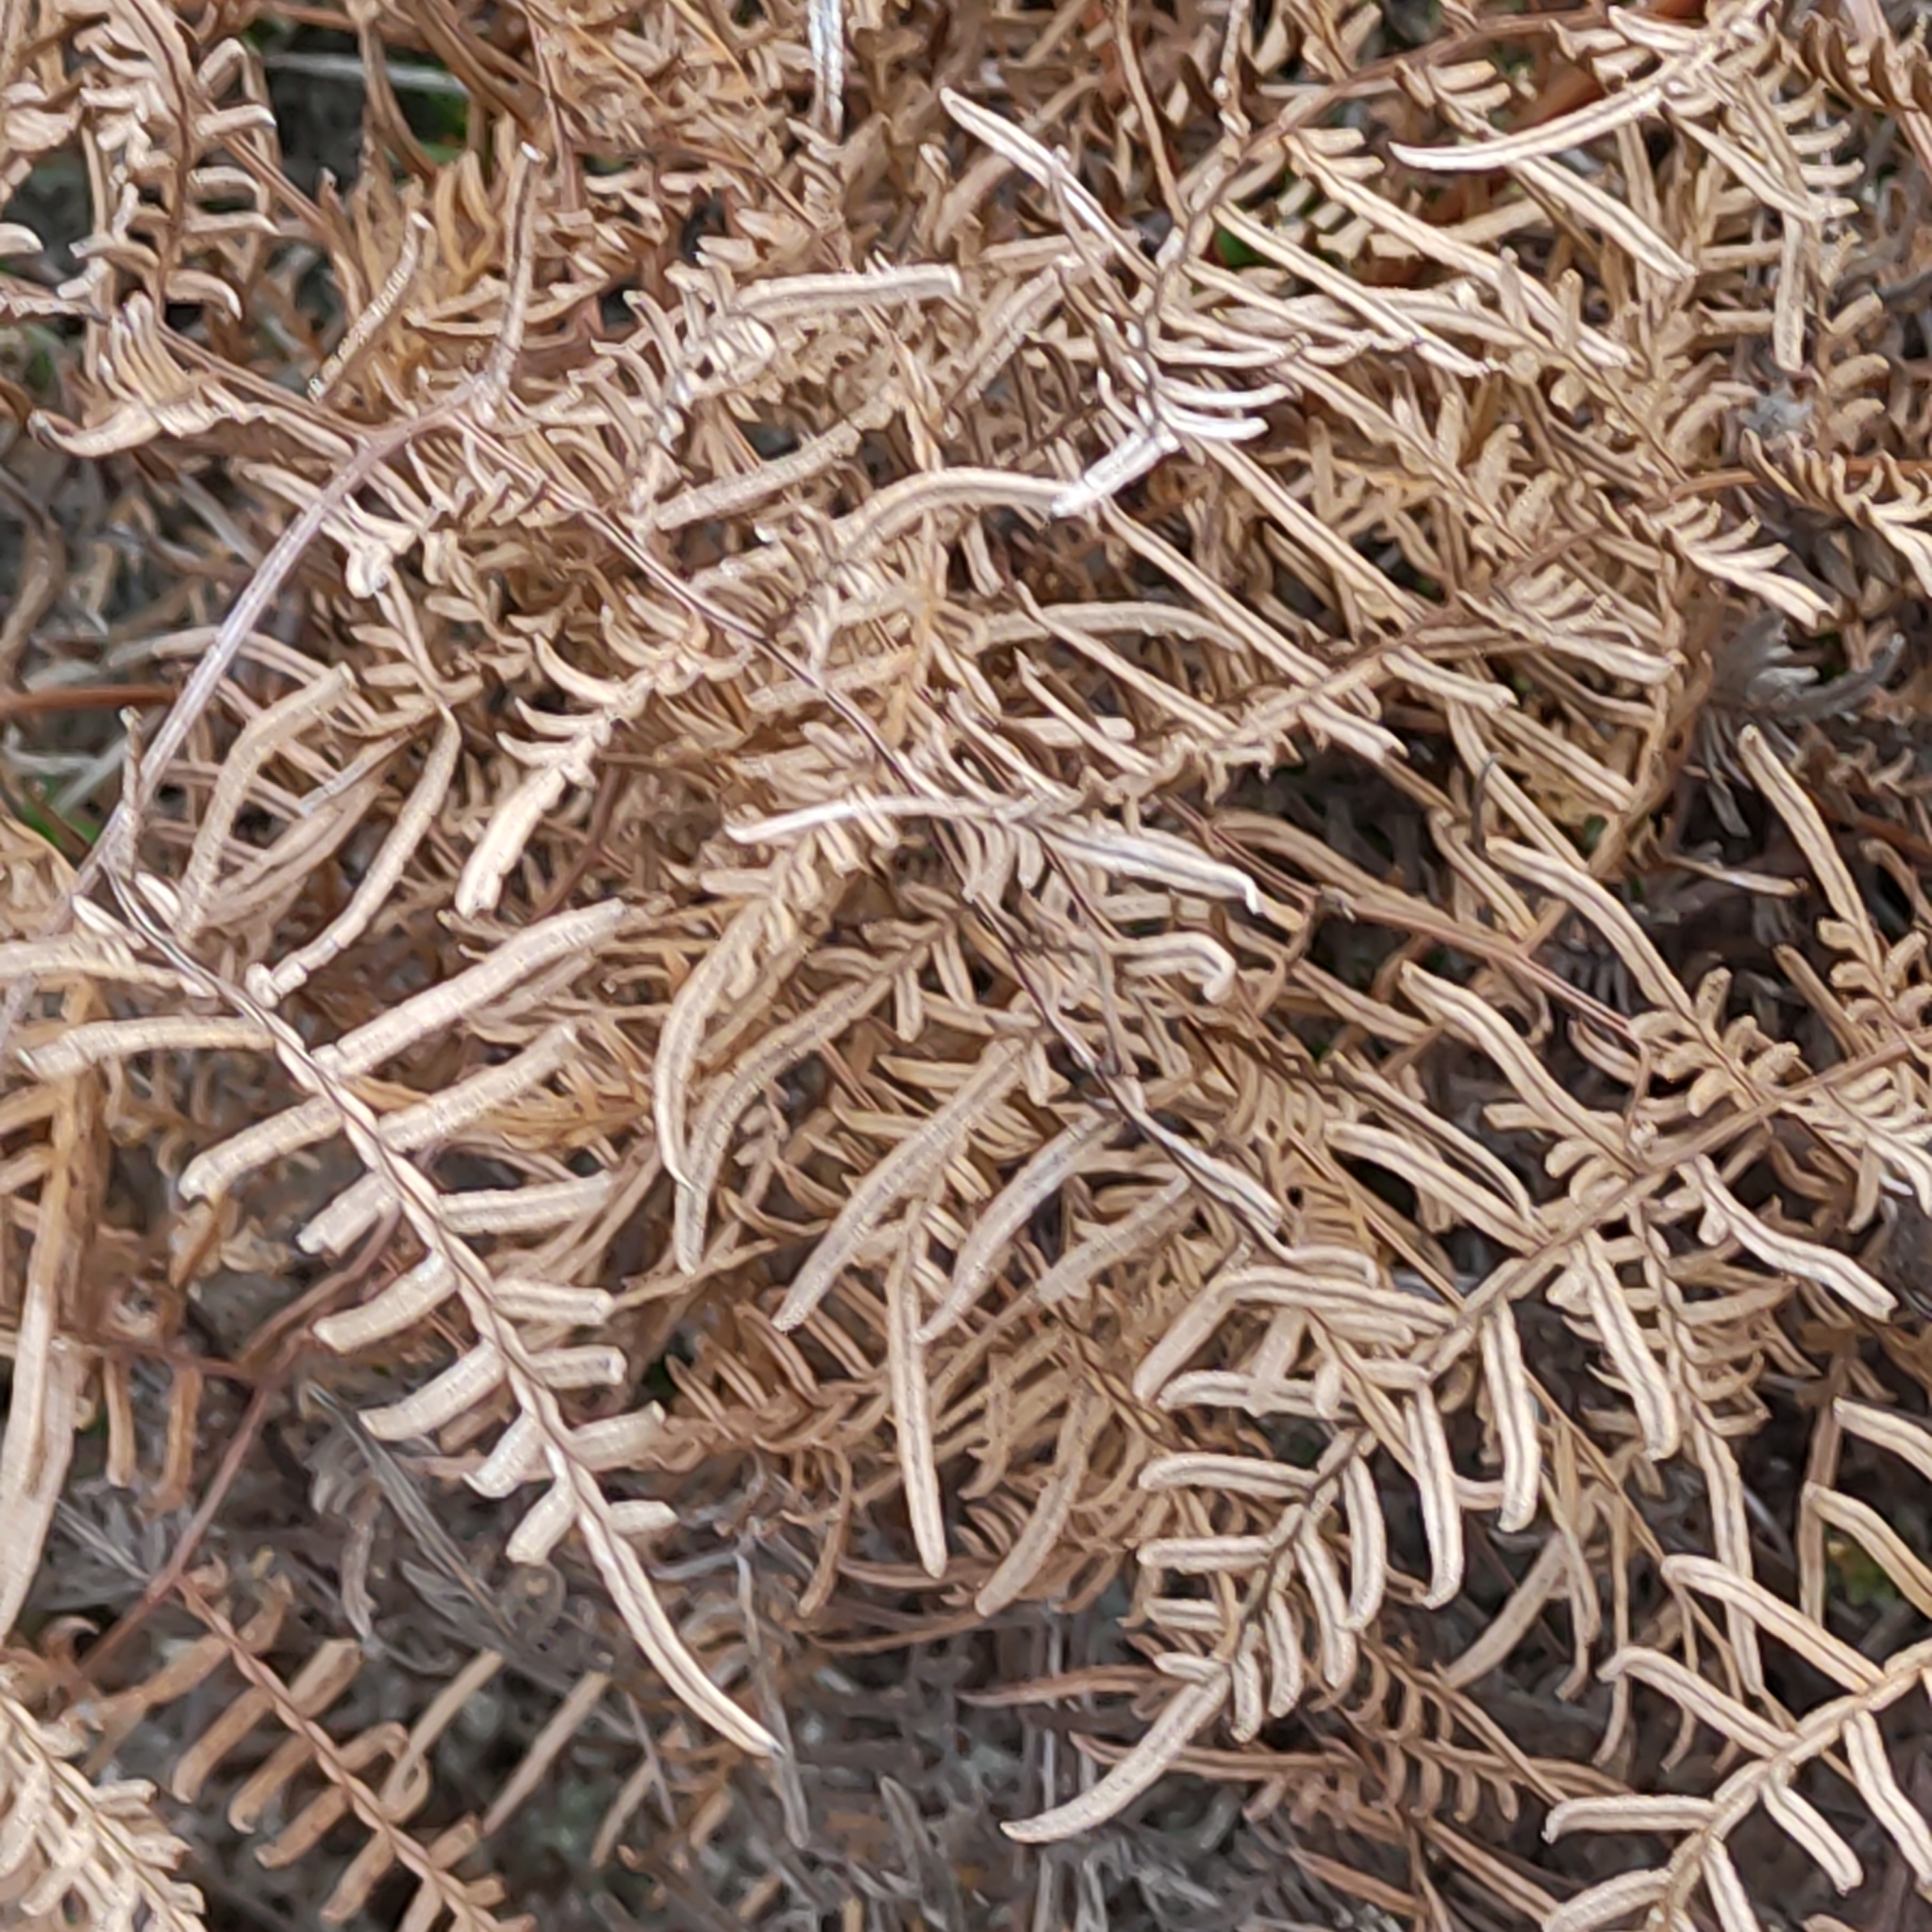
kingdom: Plantae
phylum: Tracheophyta
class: Polypodiopsida
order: Polypodiales
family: Dennstaedtiaceae
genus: Pteridium
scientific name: Pteridium esculentum
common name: Bracken fern
